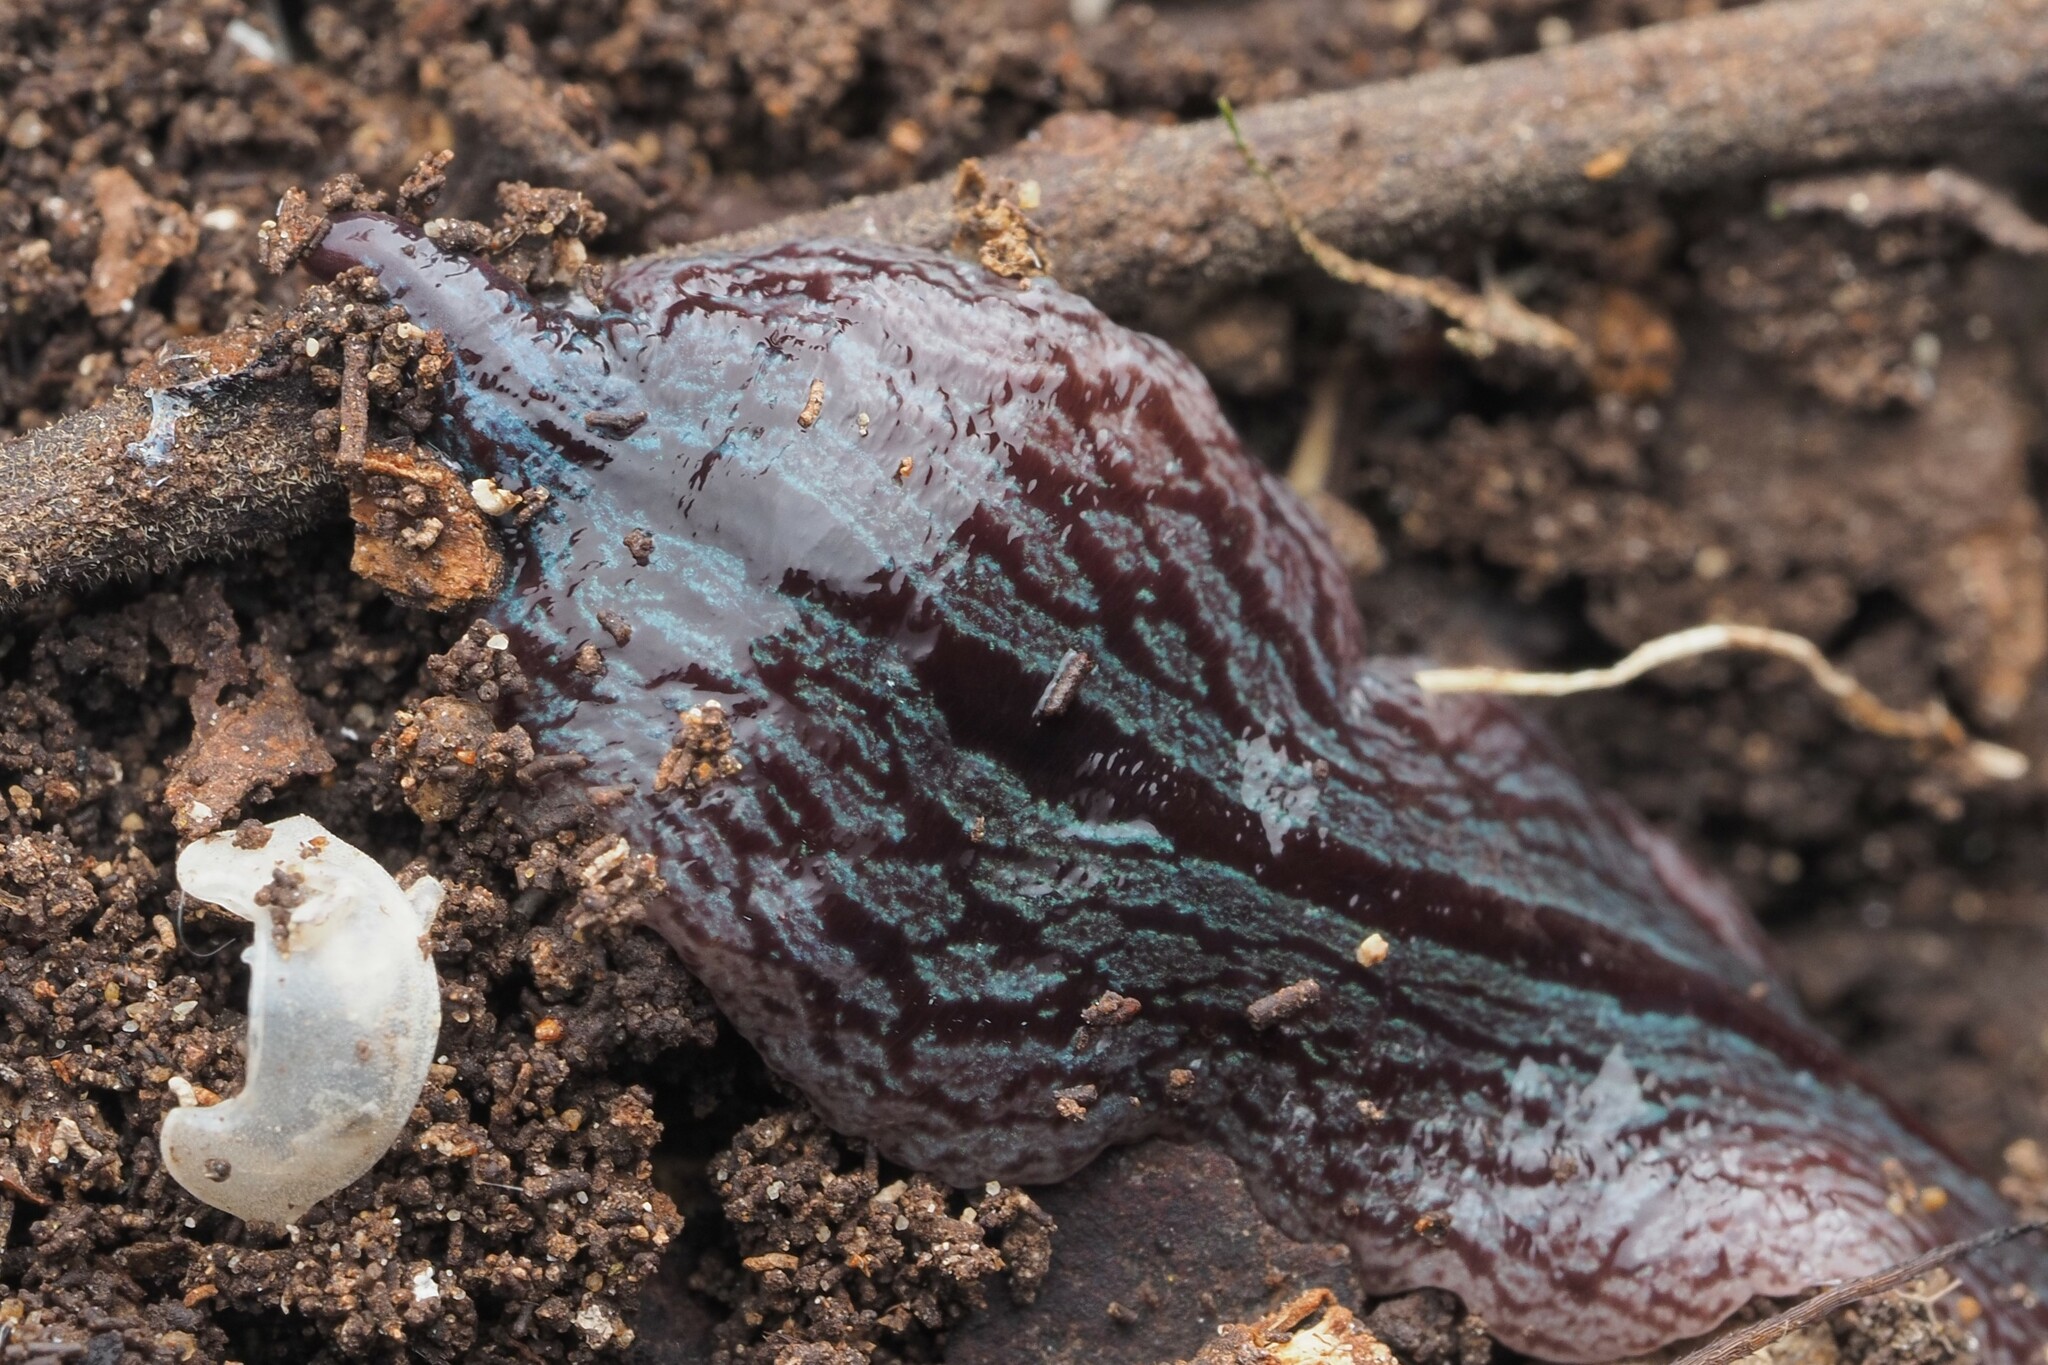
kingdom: Animalia
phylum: Platyhelminthes
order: Tricladida
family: Geoplanidae
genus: Artioposthia
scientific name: Artioposthia exulans
